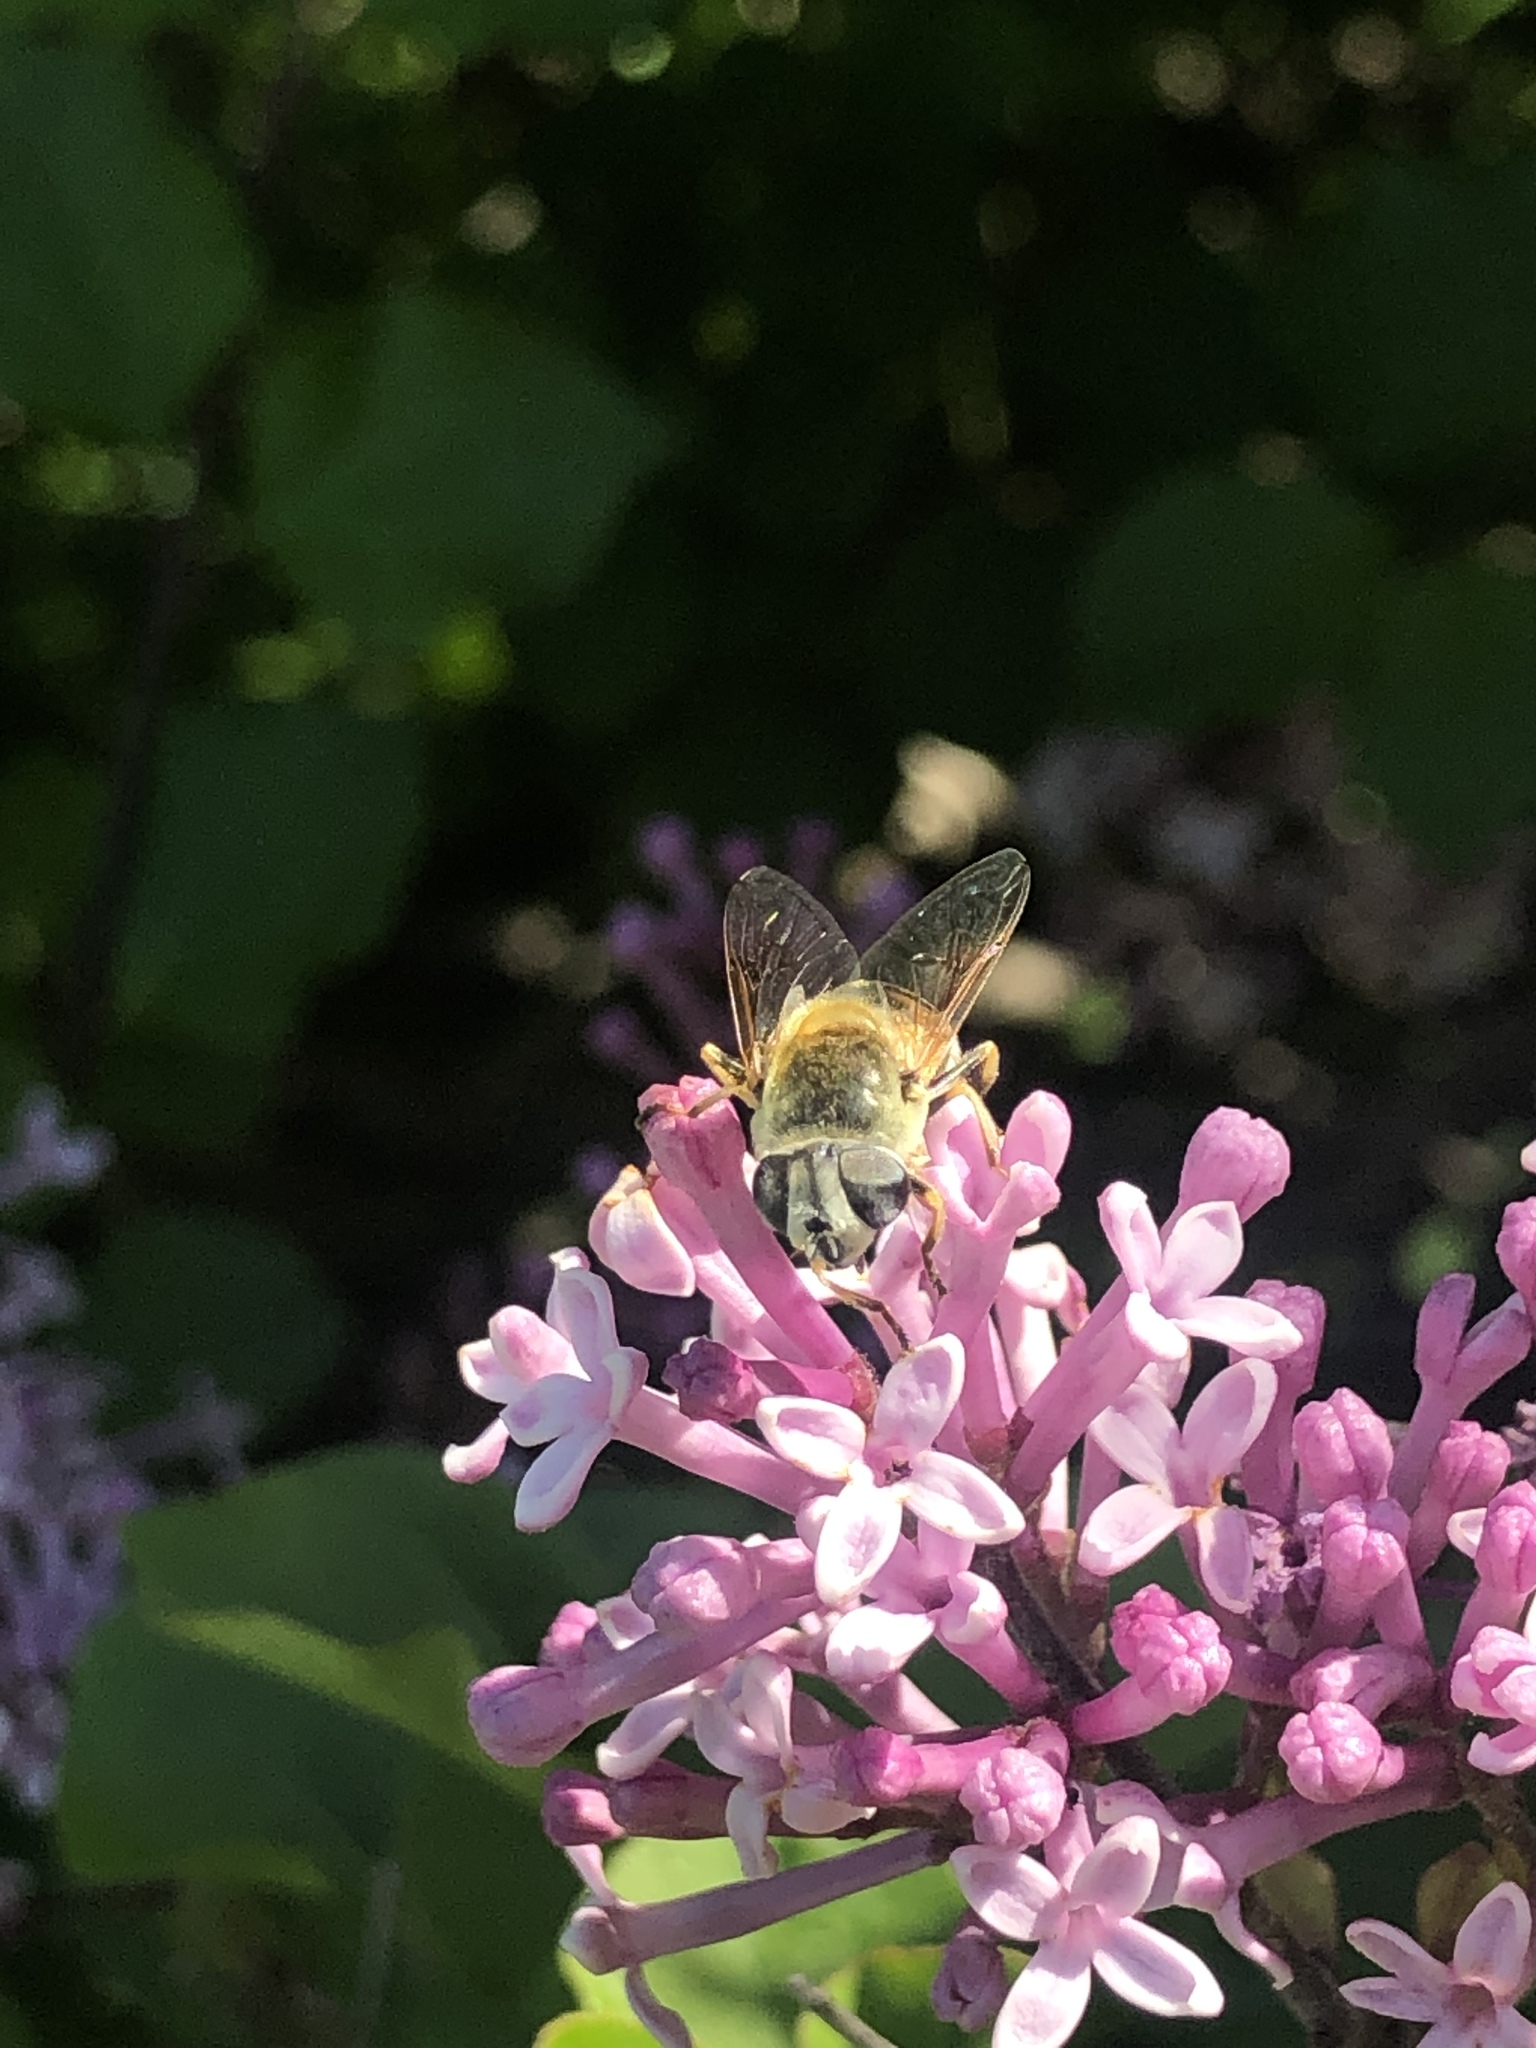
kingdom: Animalia
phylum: Arthropoda
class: Insecta
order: Diptera
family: Syrphidae
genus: Eristalis
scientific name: Eristalis stipator
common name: Yellow-shouldered drone fly
